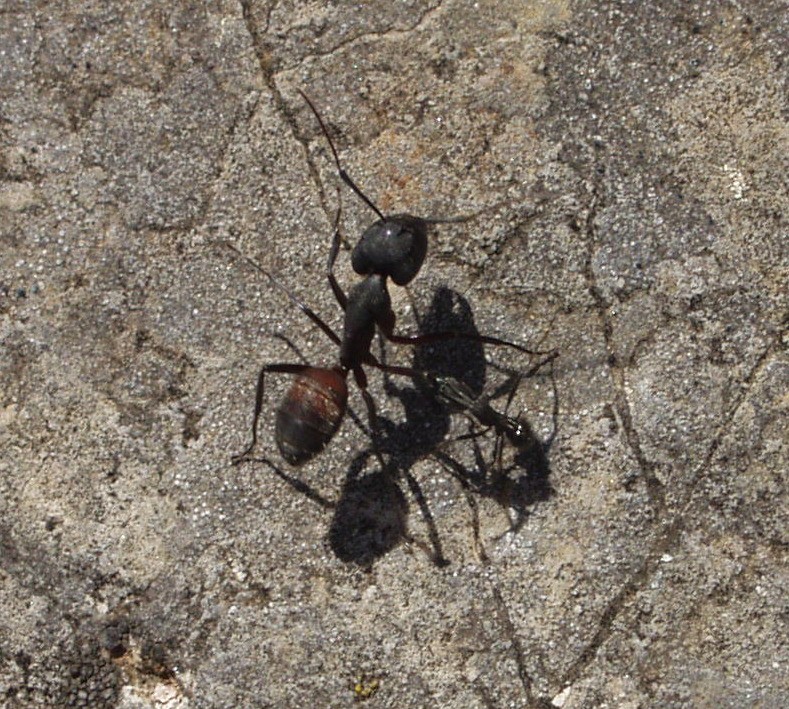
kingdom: Animalia
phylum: Arthropoda
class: Insecta
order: Hymenoptera
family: Formicidae
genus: Camponotus
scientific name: Camponotus cruentatus
